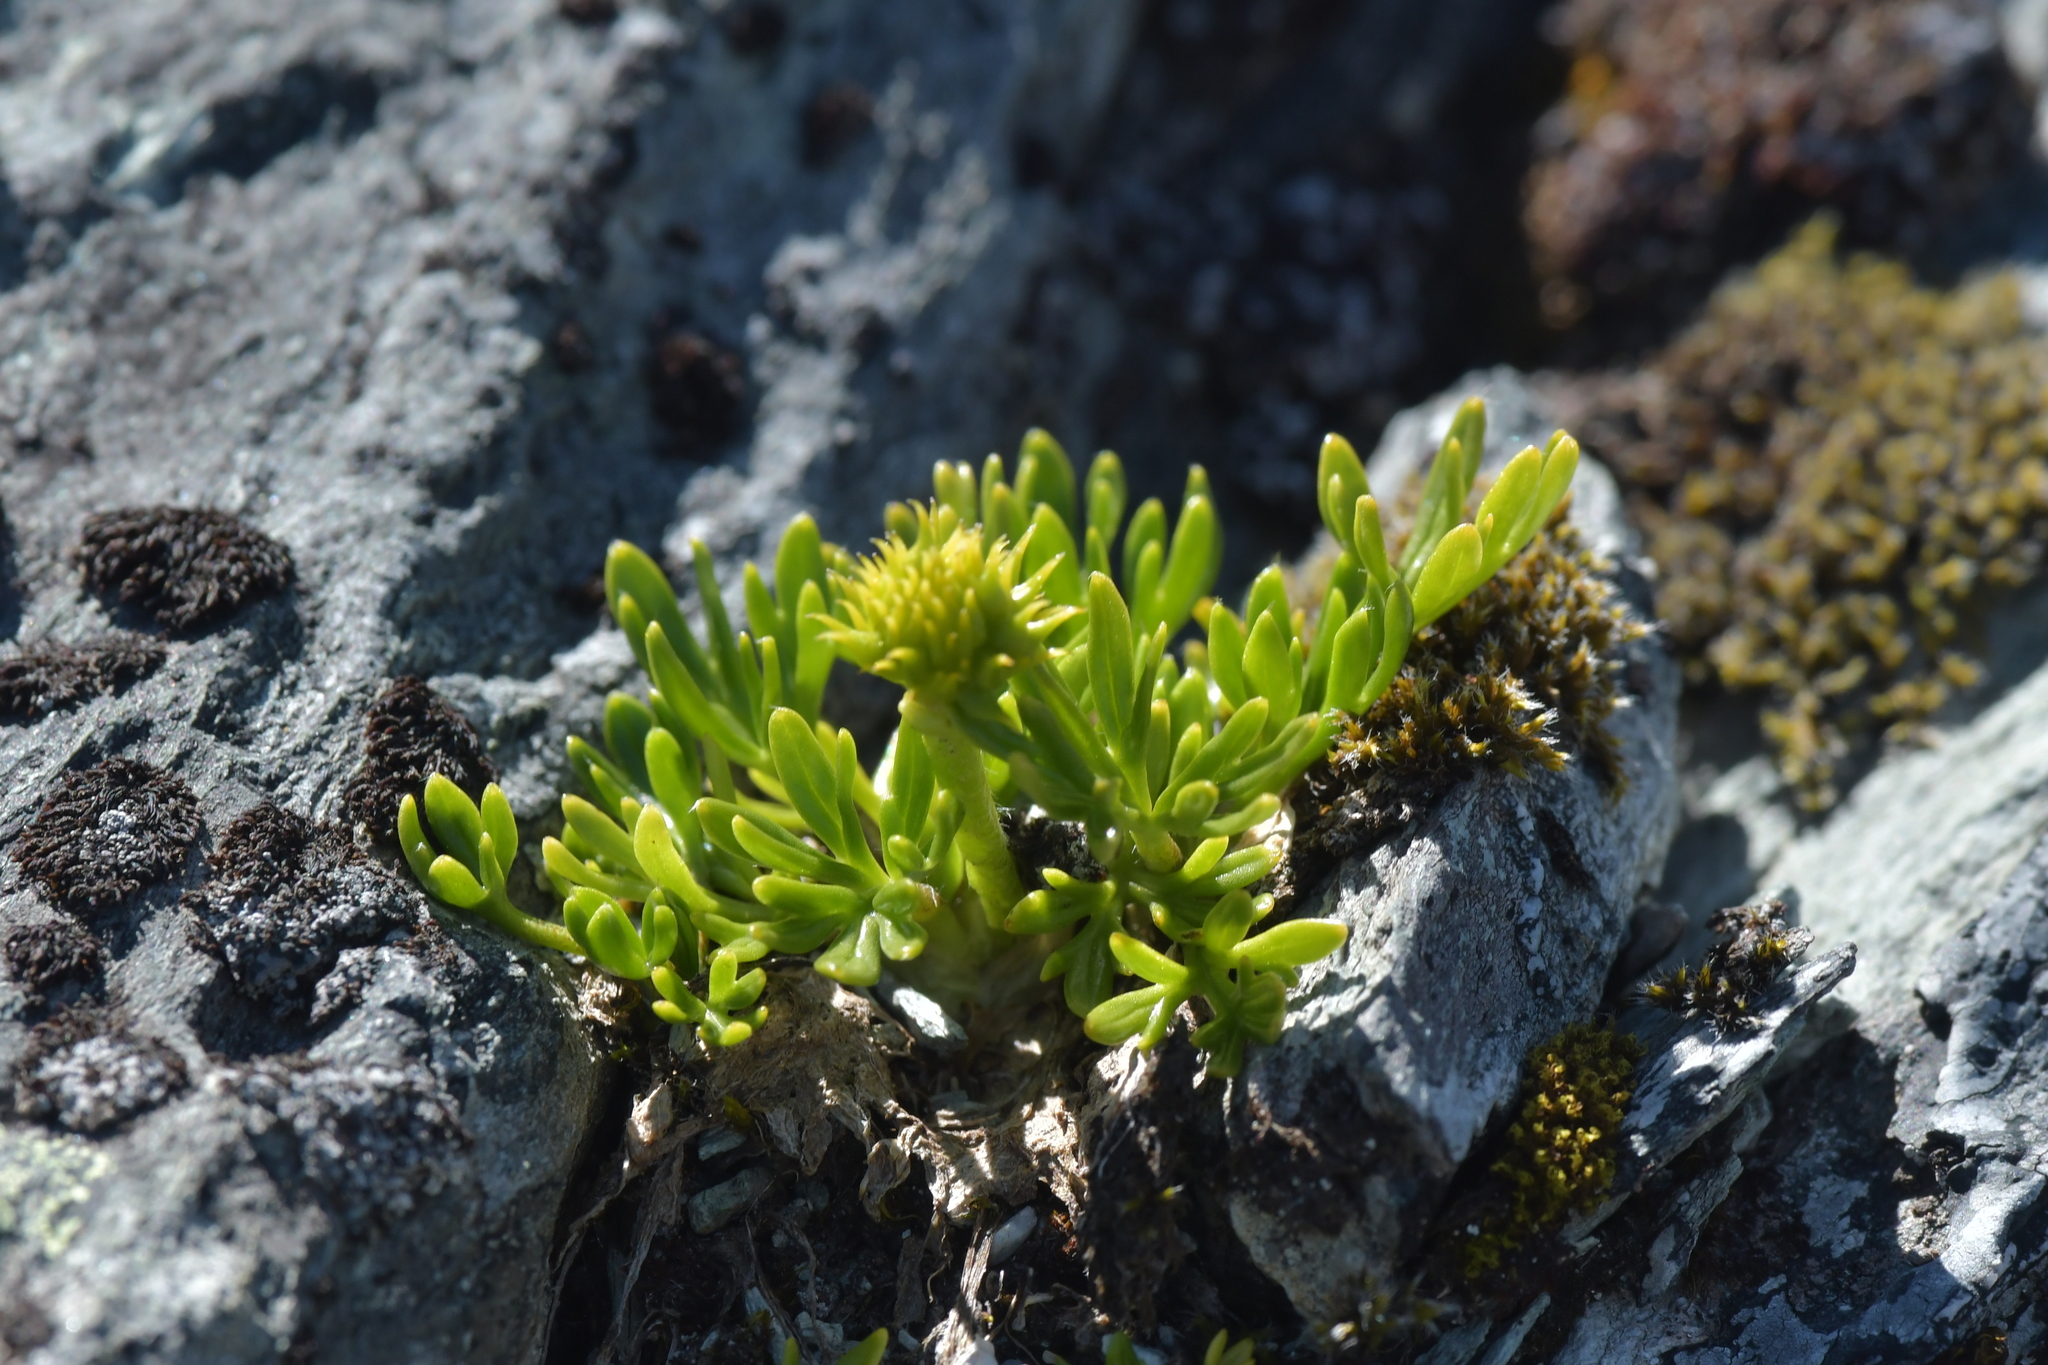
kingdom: Plantae
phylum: Tracheophyta
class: Magnoliopsida
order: Ranunculales
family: Ranunculaceae
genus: Ranunculus
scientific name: Ranunculus sericophyllus
